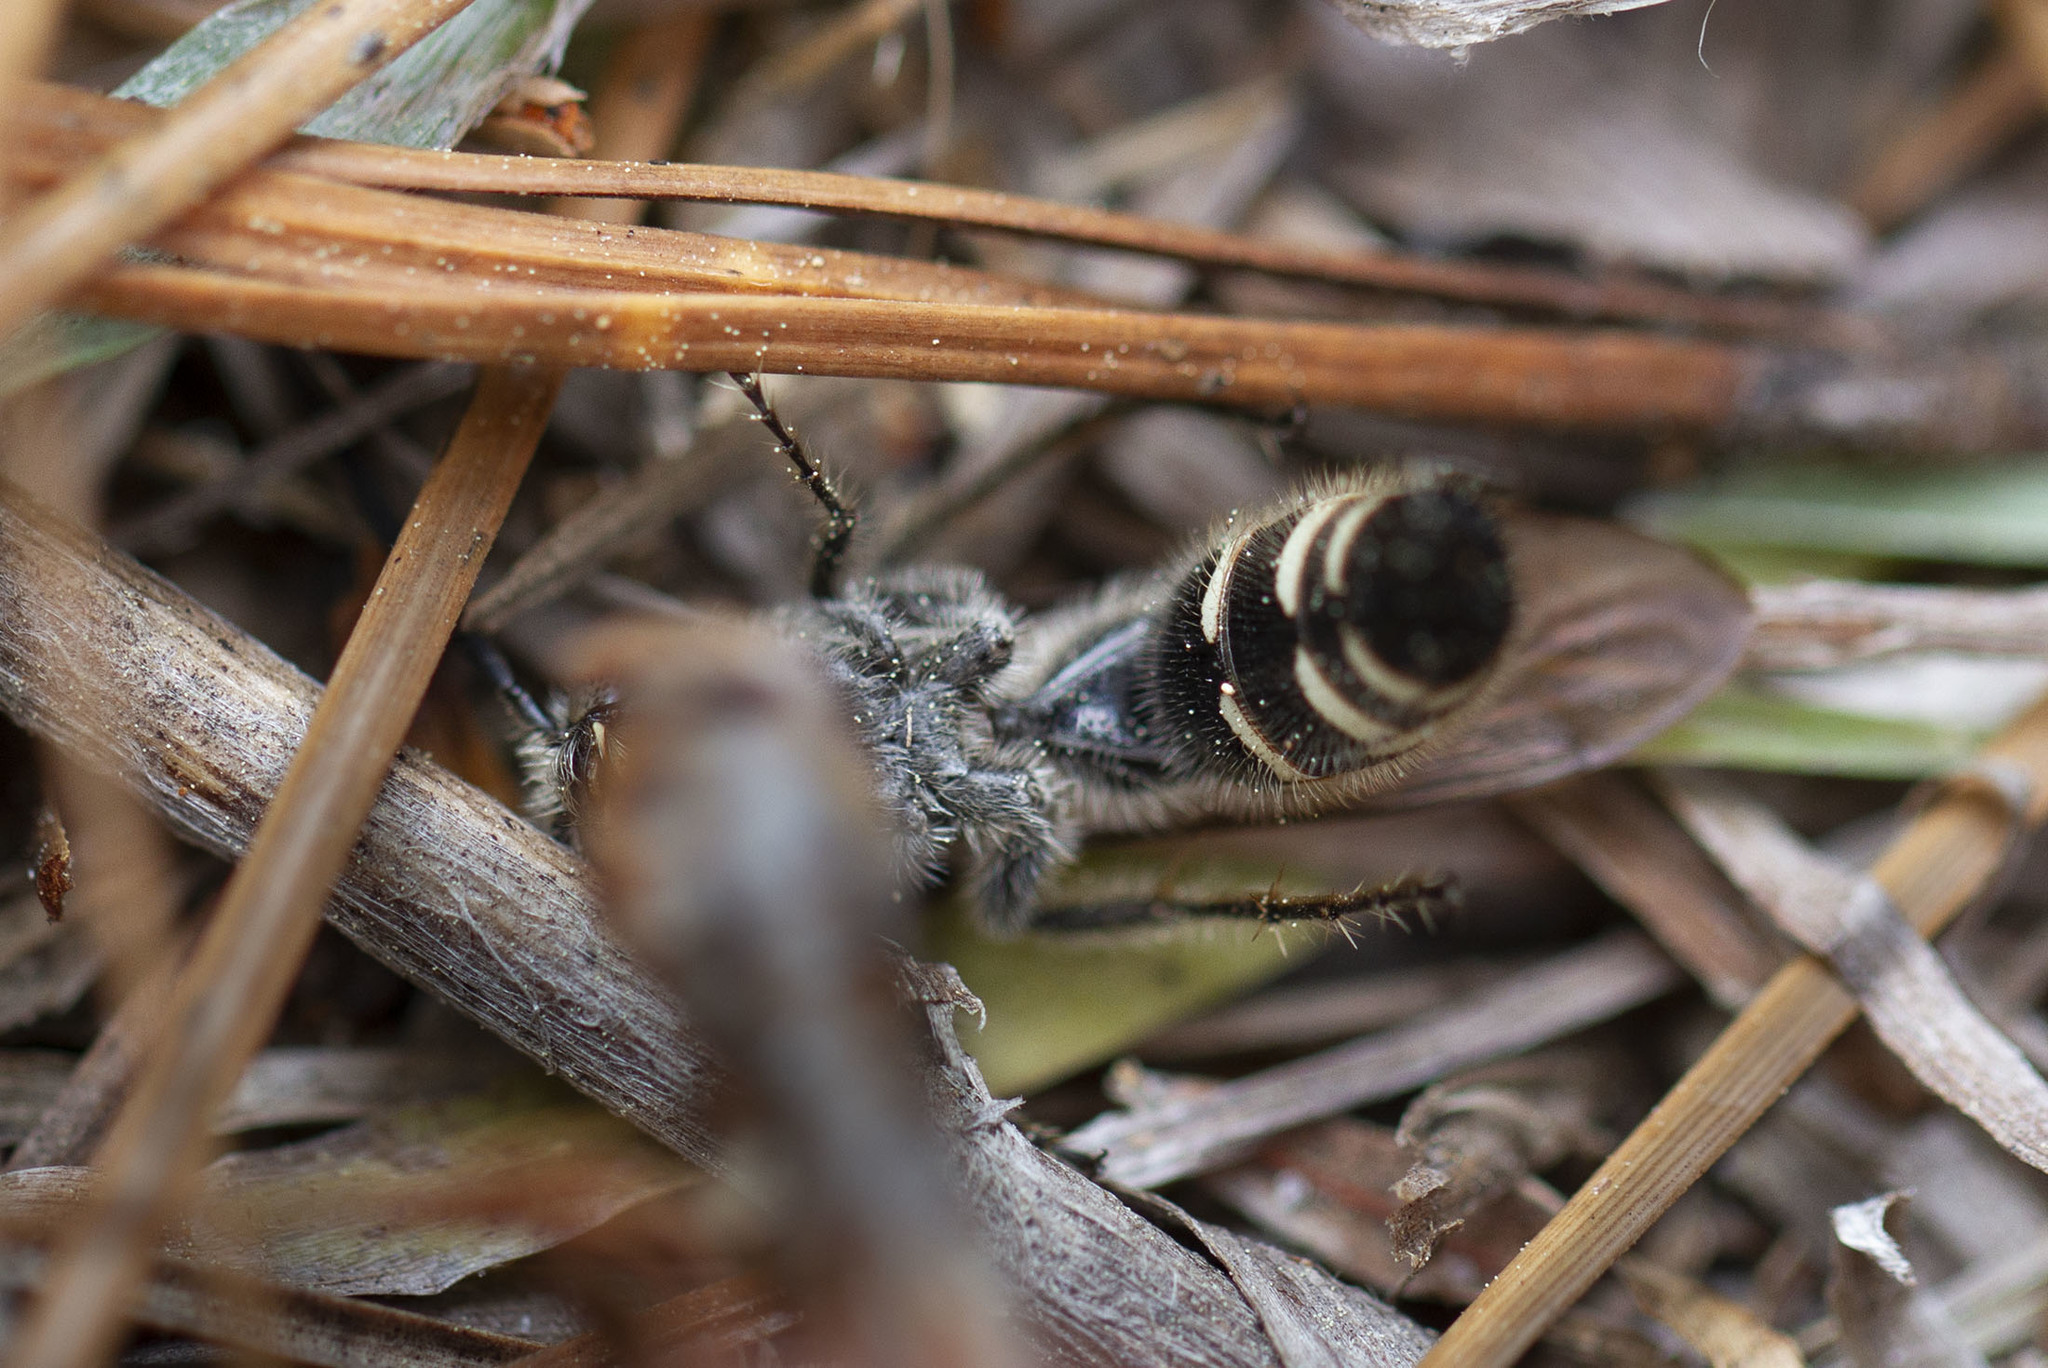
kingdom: Animalia
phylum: Arthropoda
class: Insecta
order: Hymenoptera
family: Scoliidae
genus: Dielis
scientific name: Dielis
